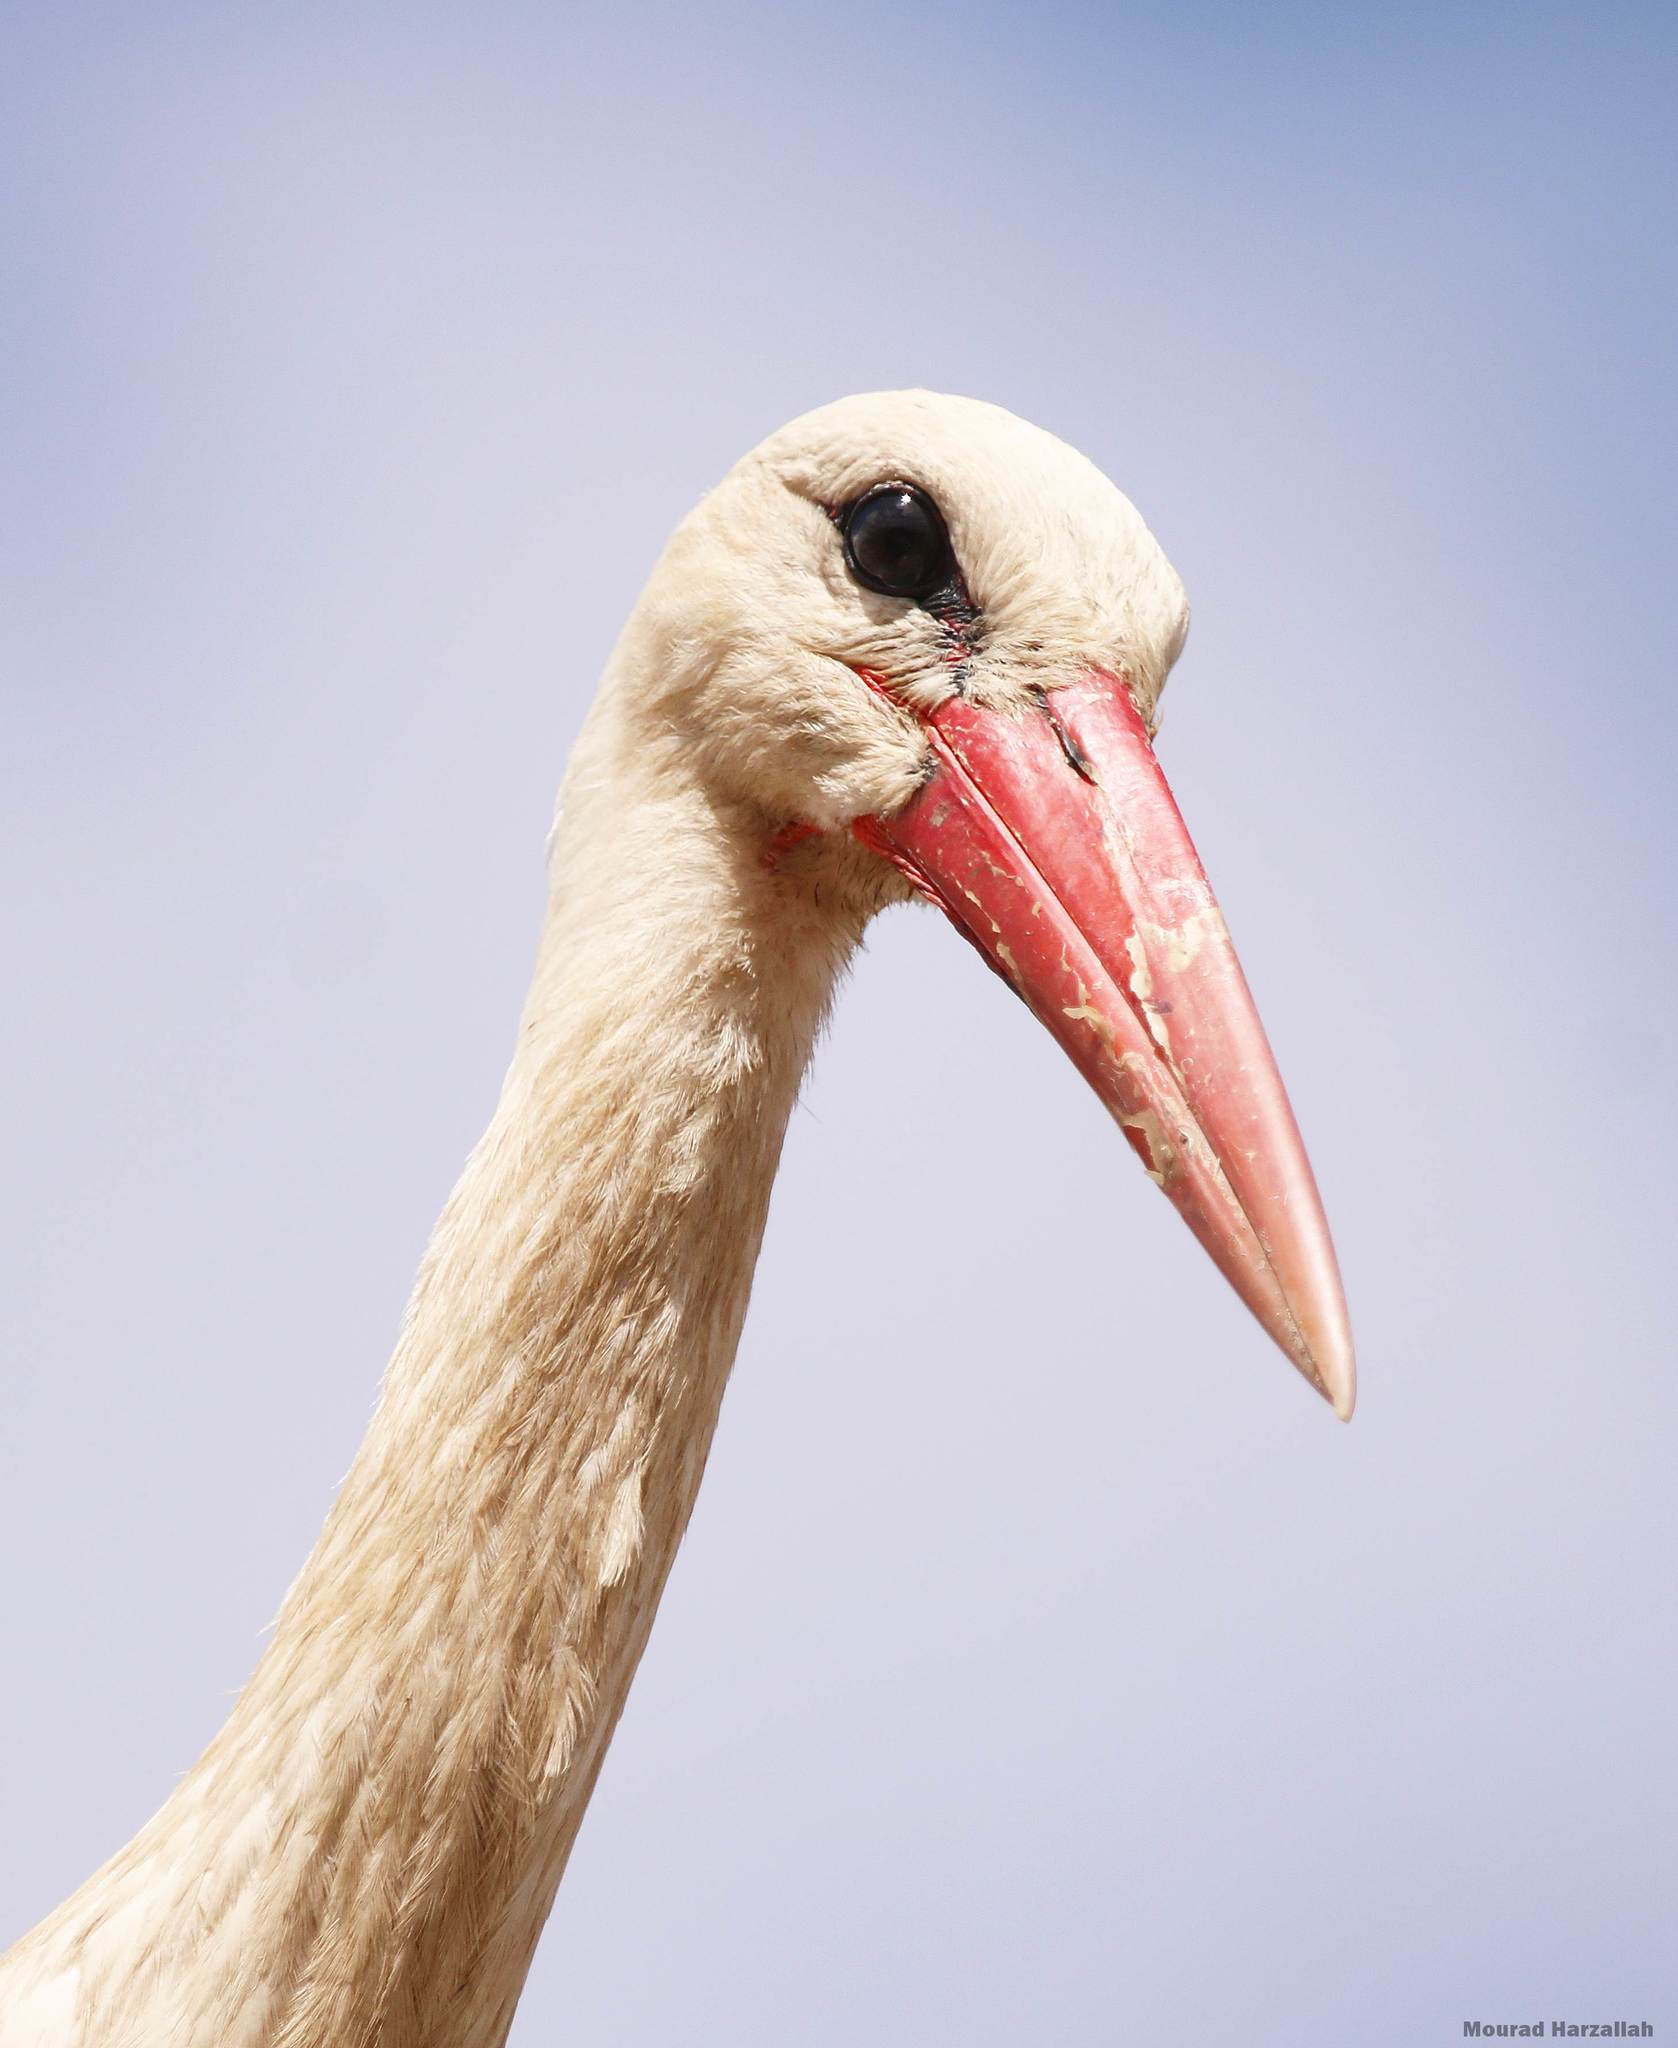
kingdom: Animalia
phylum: Chordata
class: Aves
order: Ciconiiformes
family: Ciconiidae
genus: Ciconia
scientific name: Ciconia ciconia
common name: White stork
